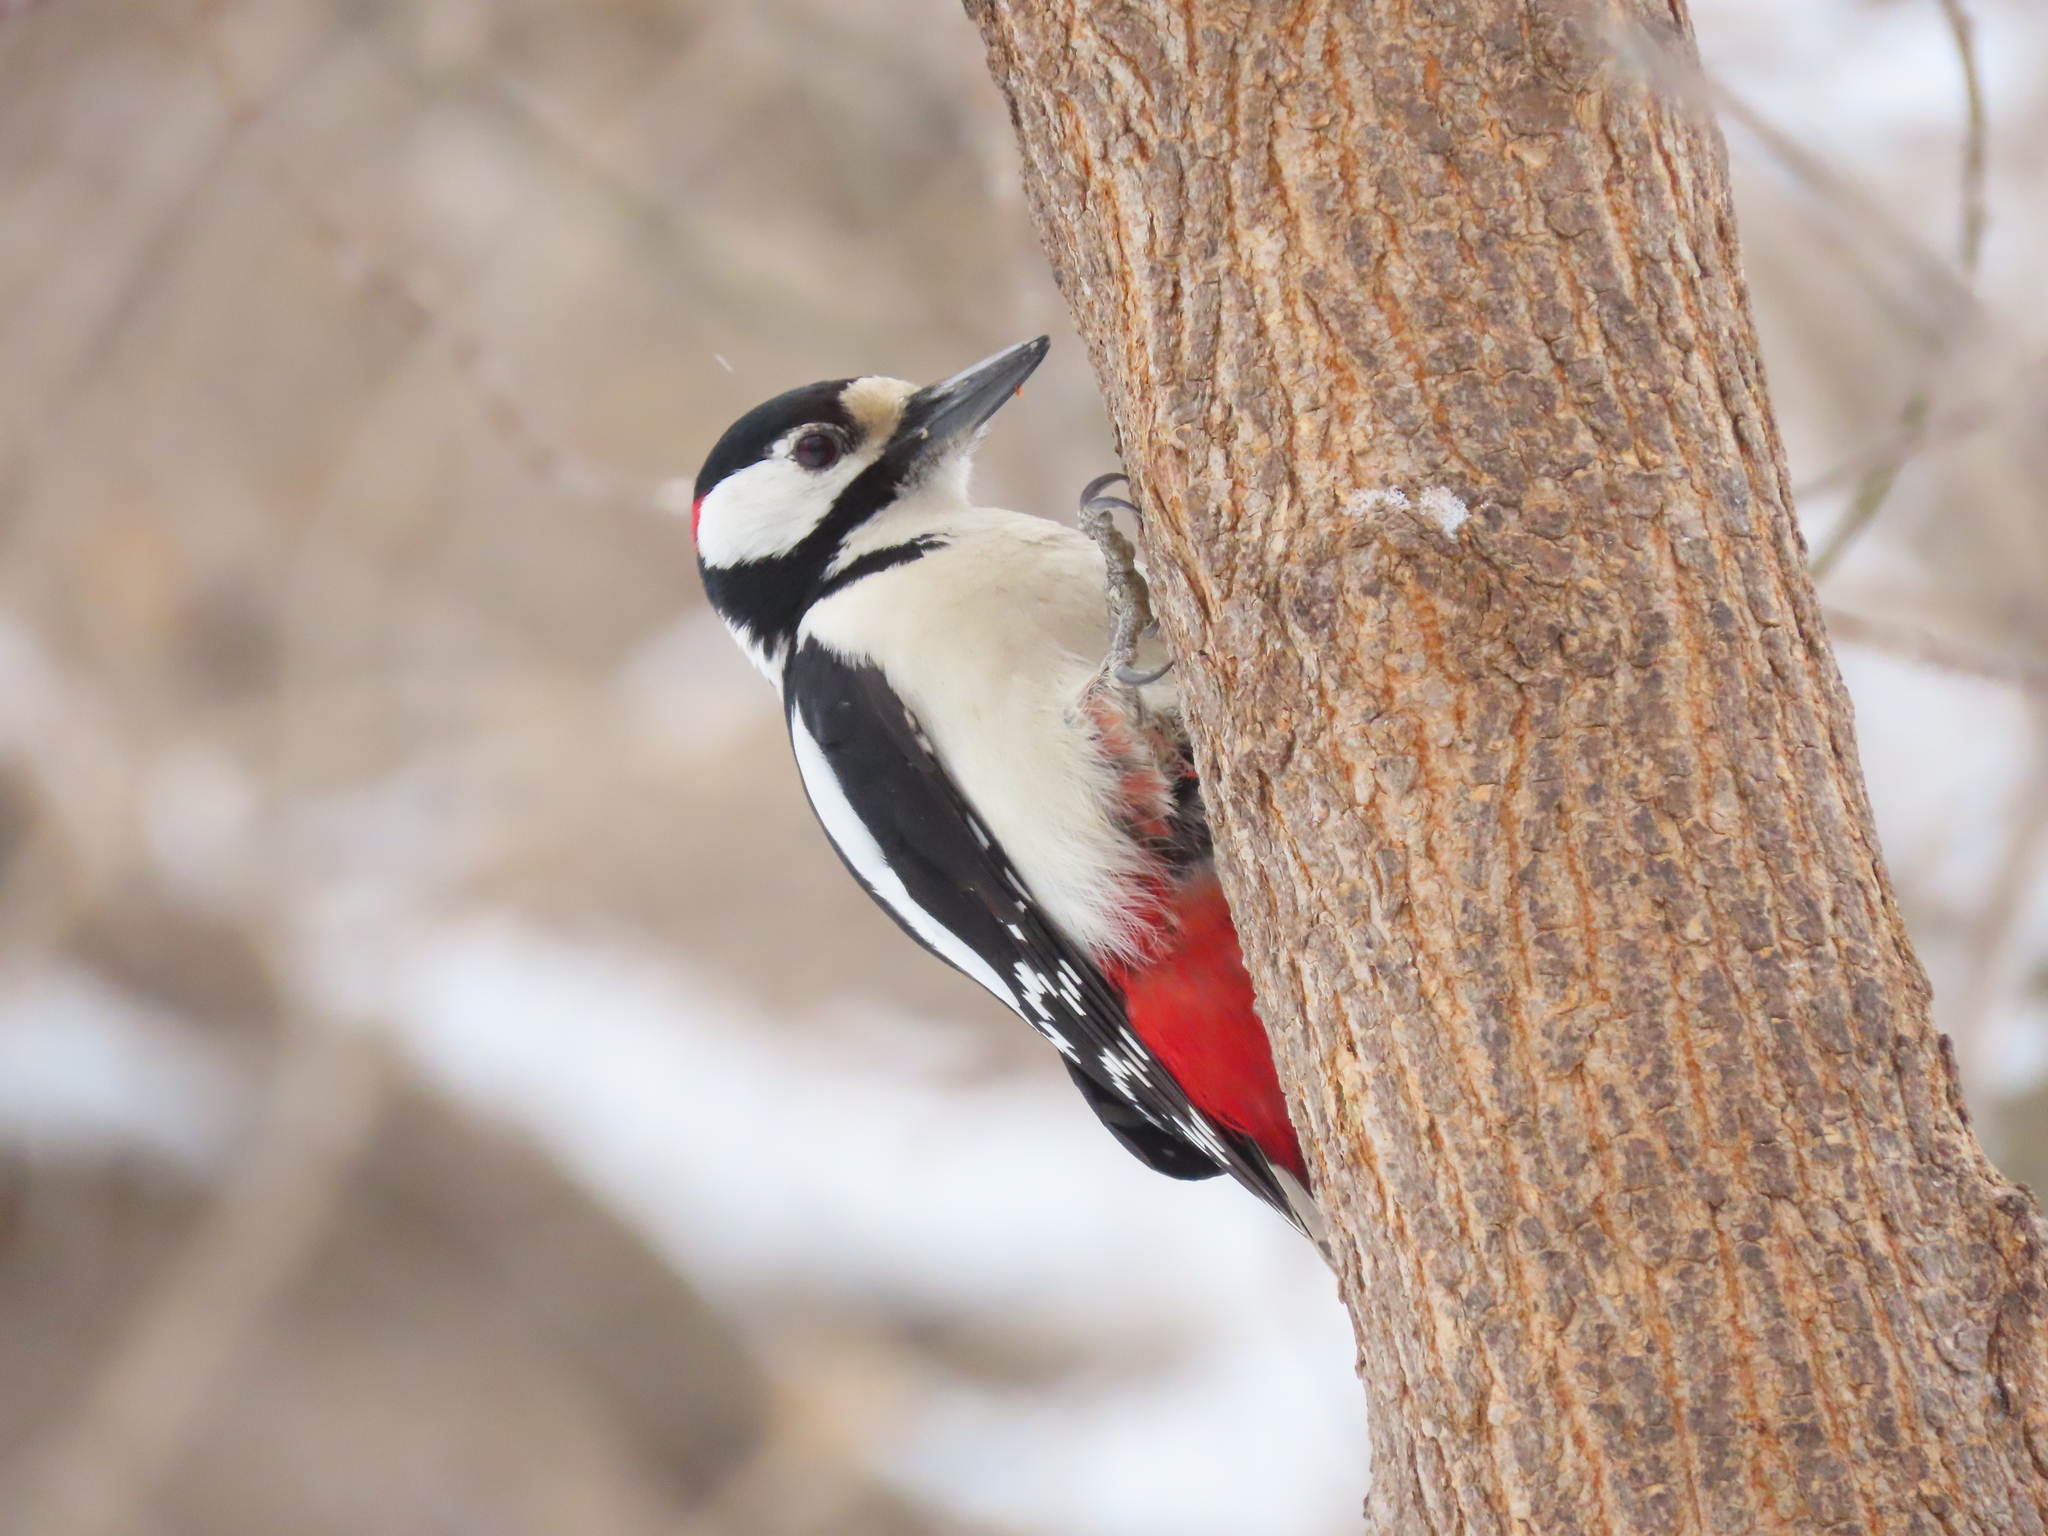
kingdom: Animalia
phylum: Chordata
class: Aves
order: Piciformes
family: Picidae
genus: Dendrocopos
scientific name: Dendrocopos major
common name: Great spotted woodpecker
